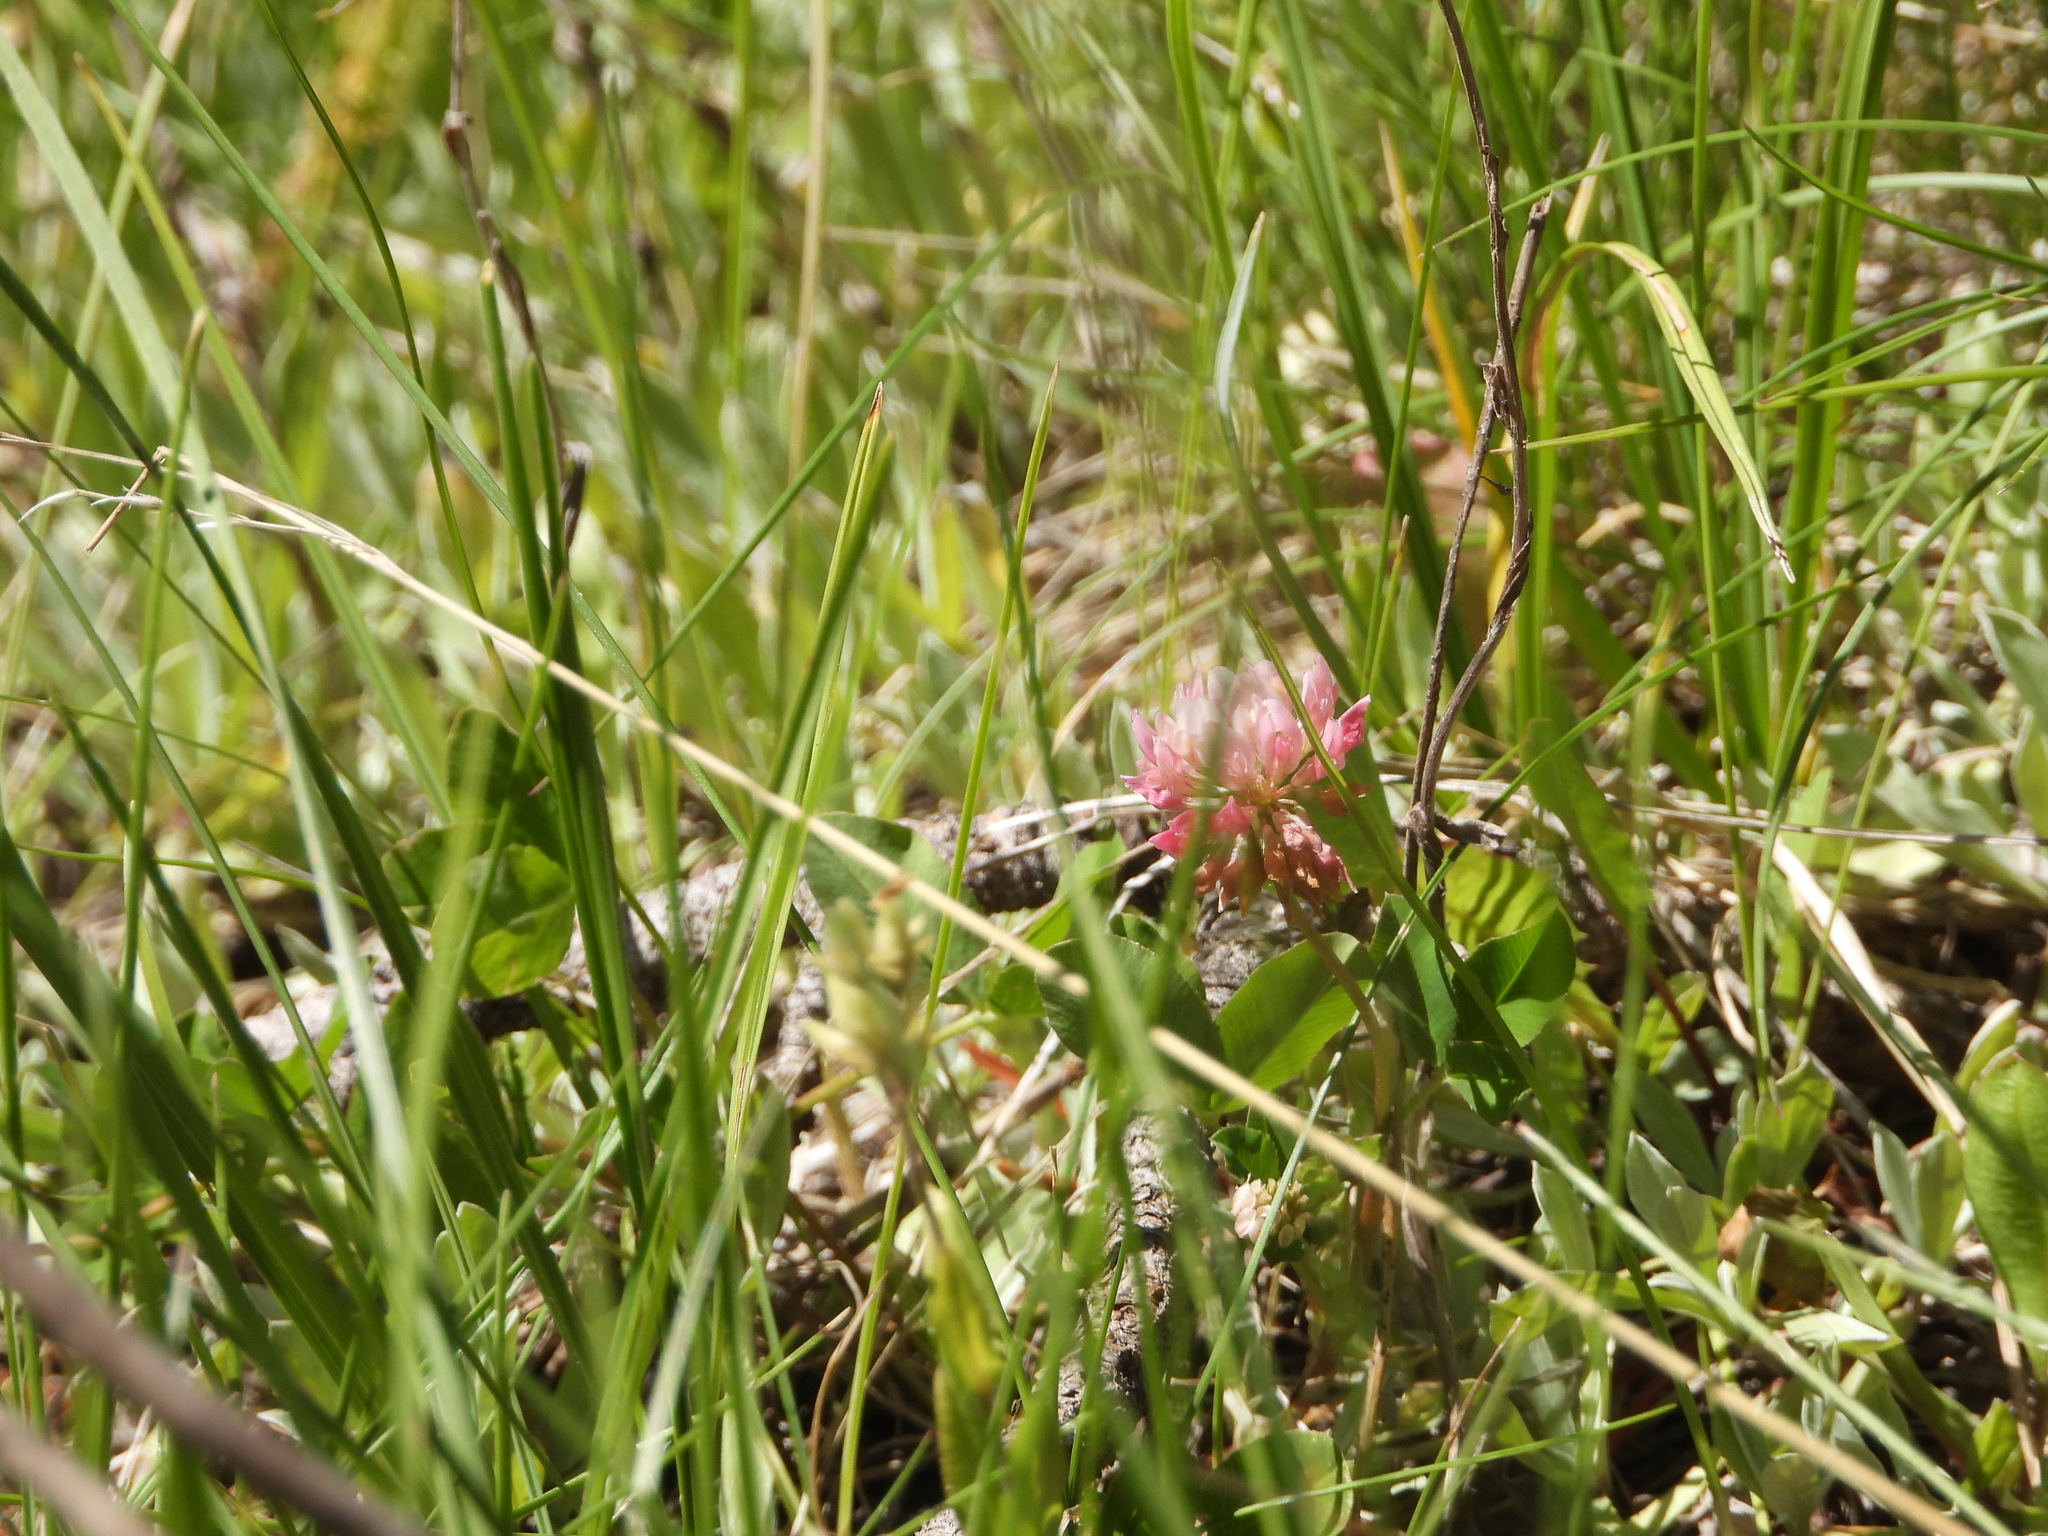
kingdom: Plantae
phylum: Tracheophyta
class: Magnoliopsida
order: Fabales
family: Fabaceae
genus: Trifolium
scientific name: Trifolium hybridum
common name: Alsike clover
